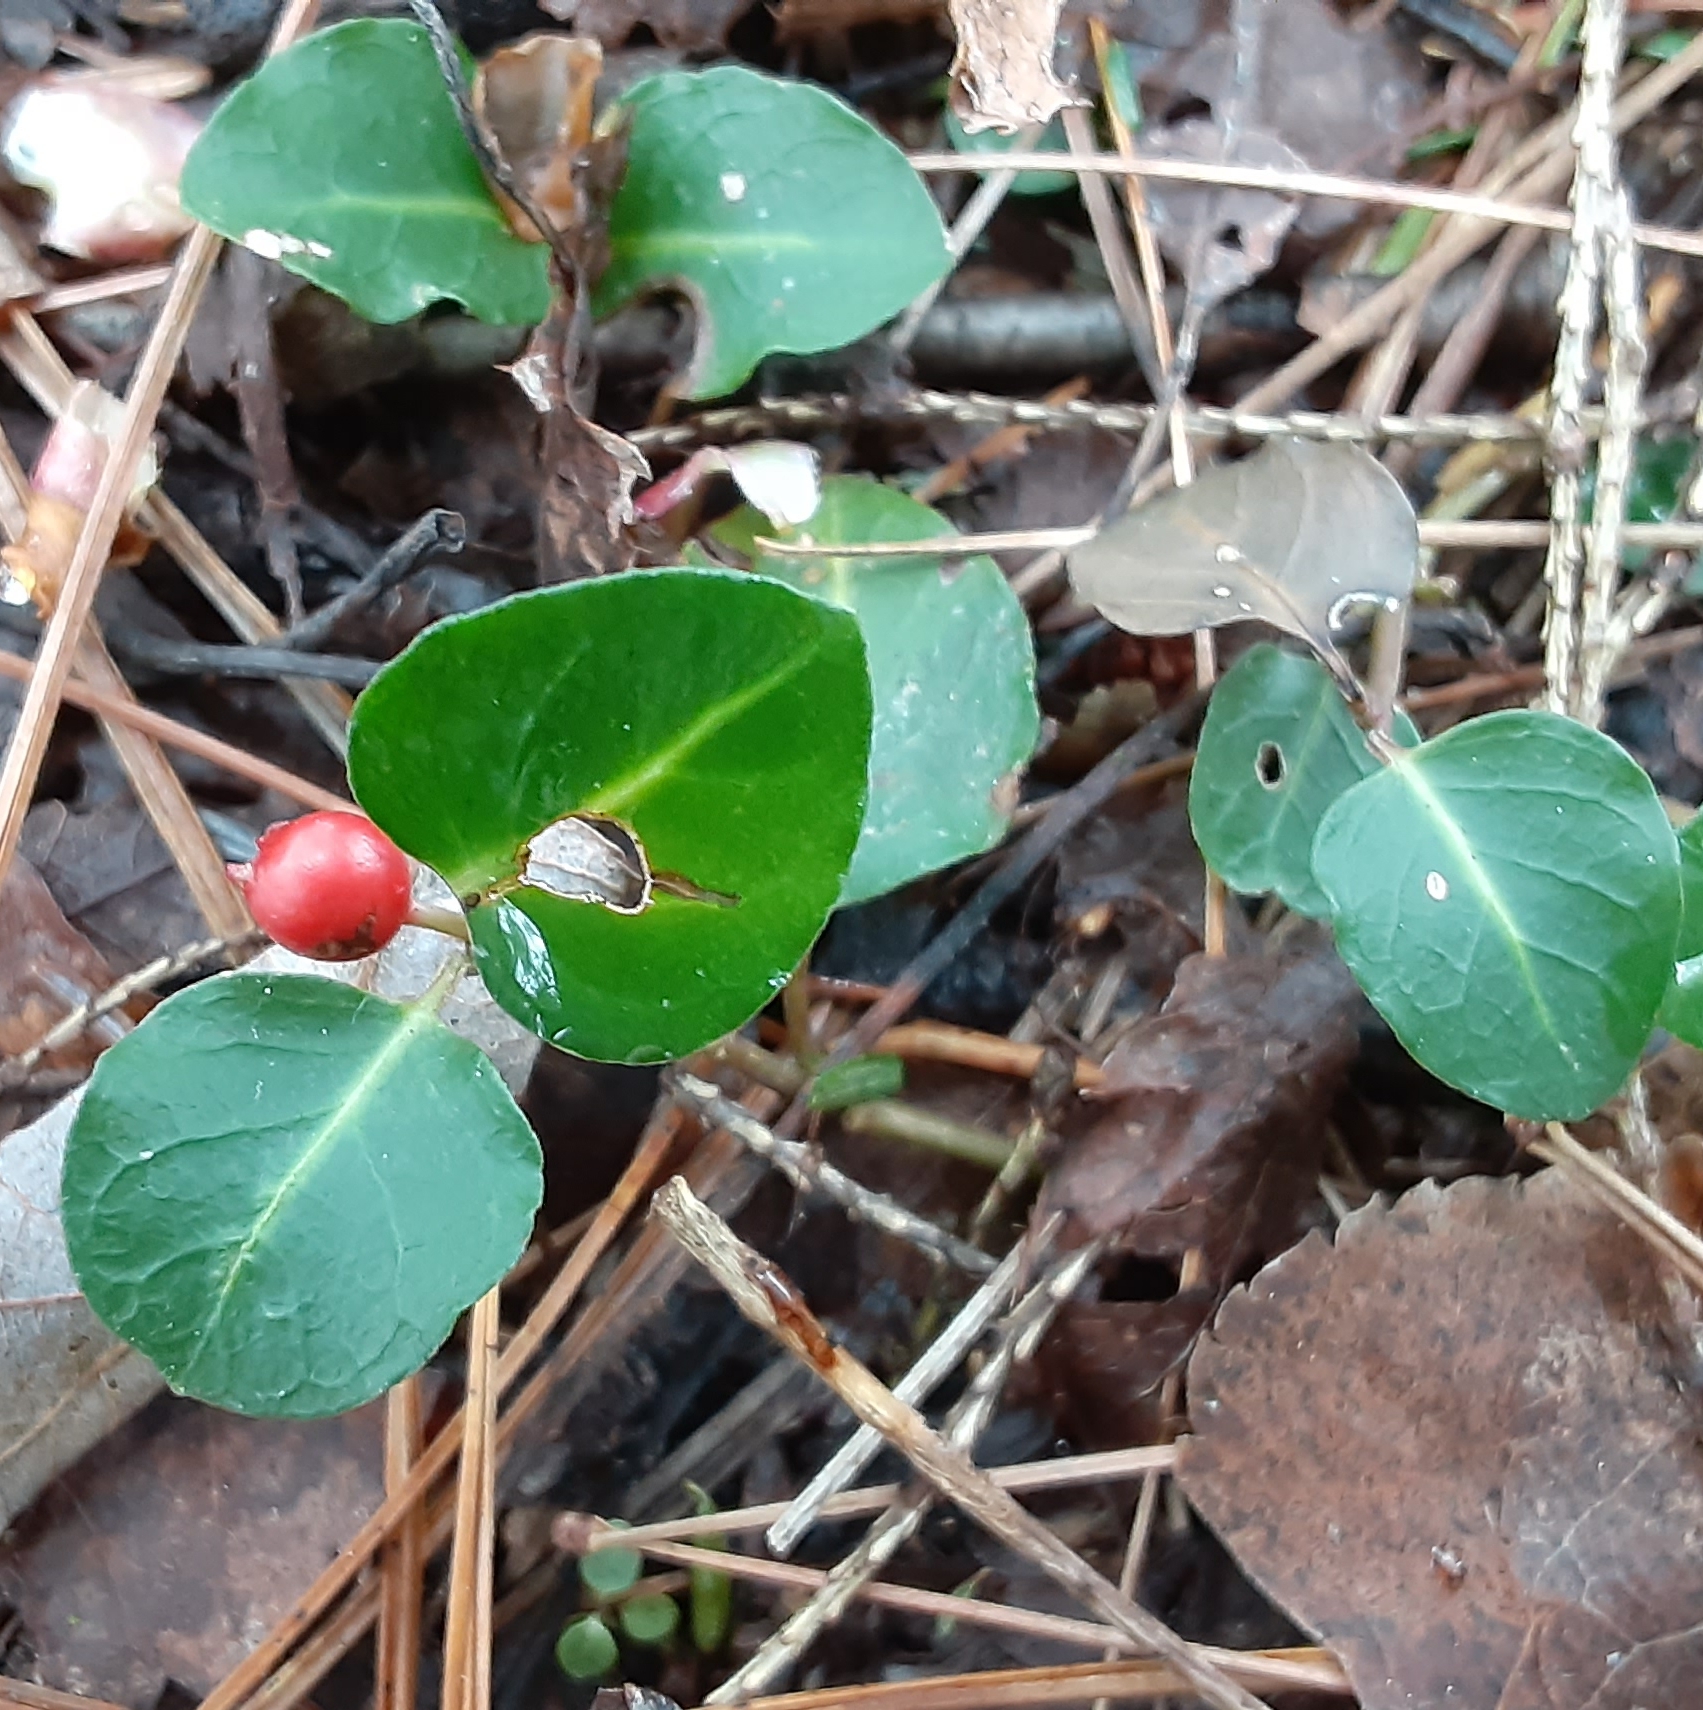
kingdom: Plantae
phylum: Tracheophyta
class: Magnoliopsida
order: Gentianales
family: Rubiaceae
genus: Mitchella
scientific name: Mitchella repens
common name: Partridge-berry
